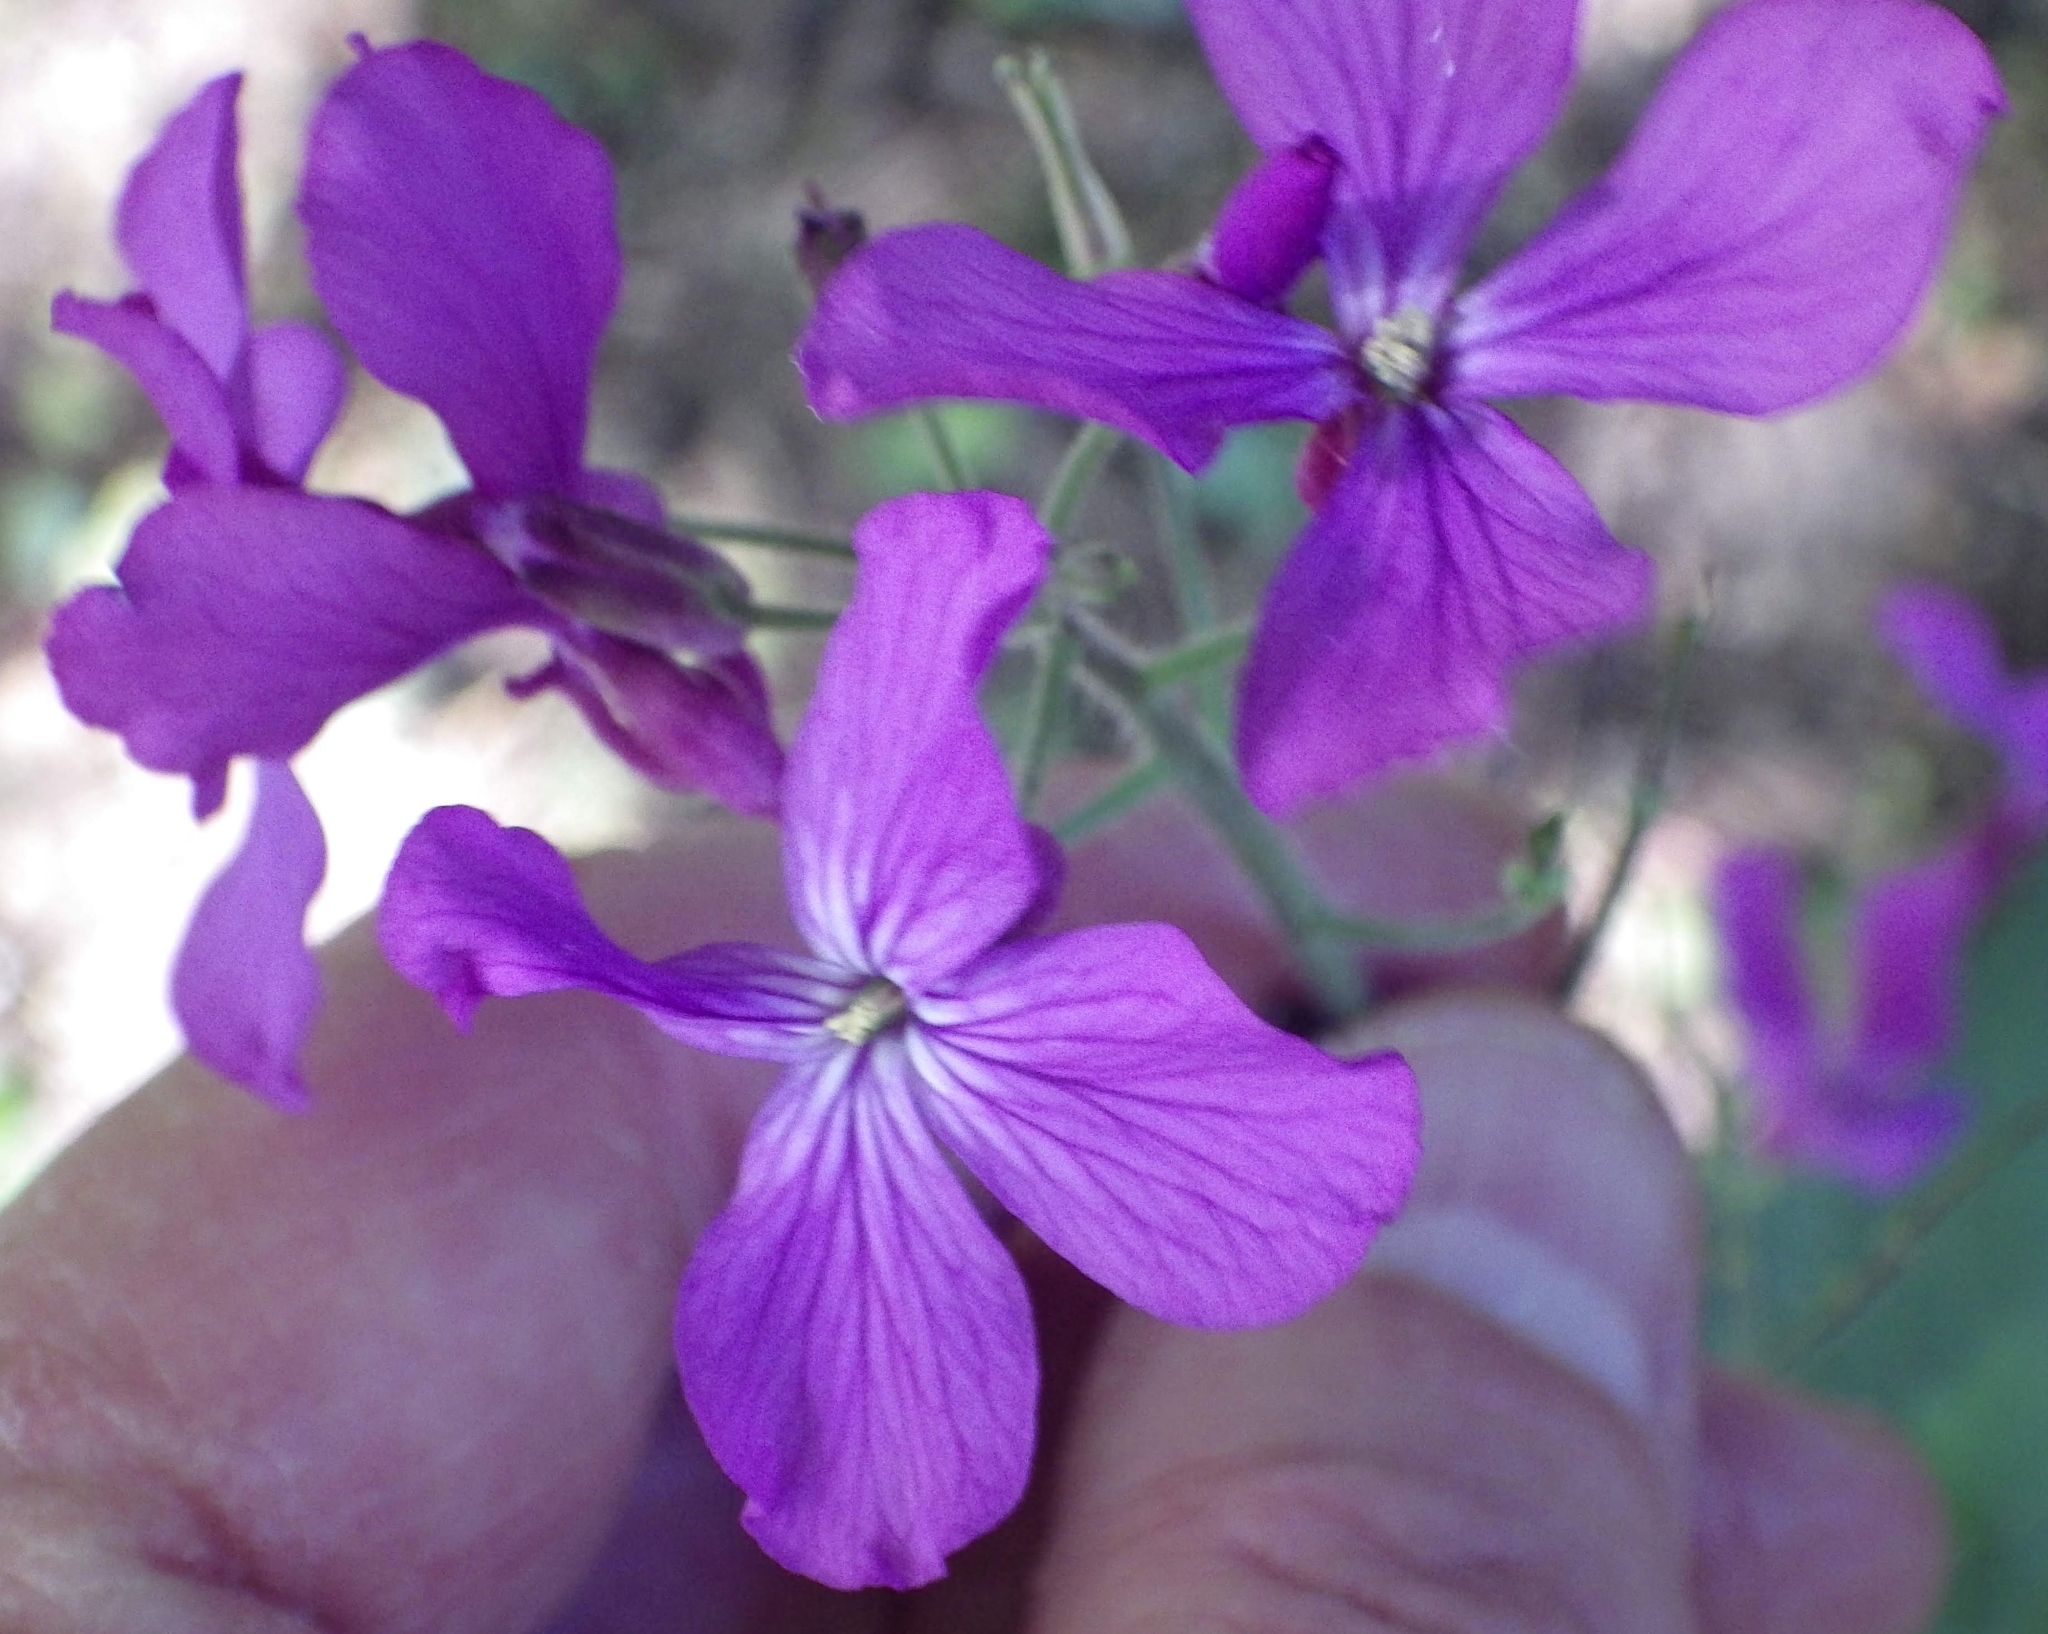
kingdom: Plantae
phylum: Tracheophyta
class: Magnoliopsida
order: Brassicales
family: Brassicaceae
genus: Lunaria
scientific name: Lunaria annua
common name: Honesty
